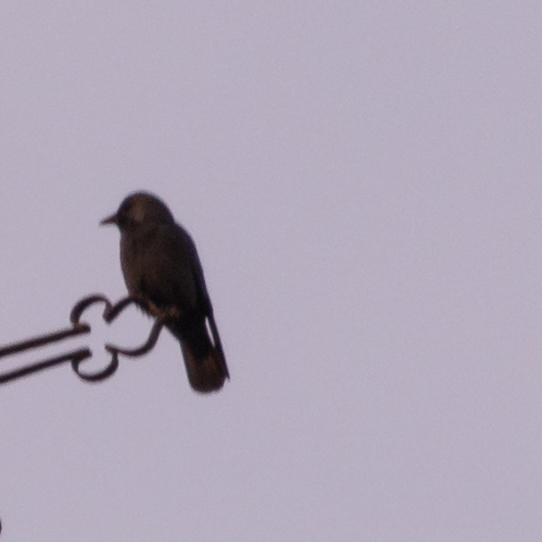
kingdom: Animalia
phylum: Chordata
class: Aves
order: Passeriformes
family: Corvidae
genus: Coloeus
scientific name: Coloeus monedula
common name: Western jackdaw
